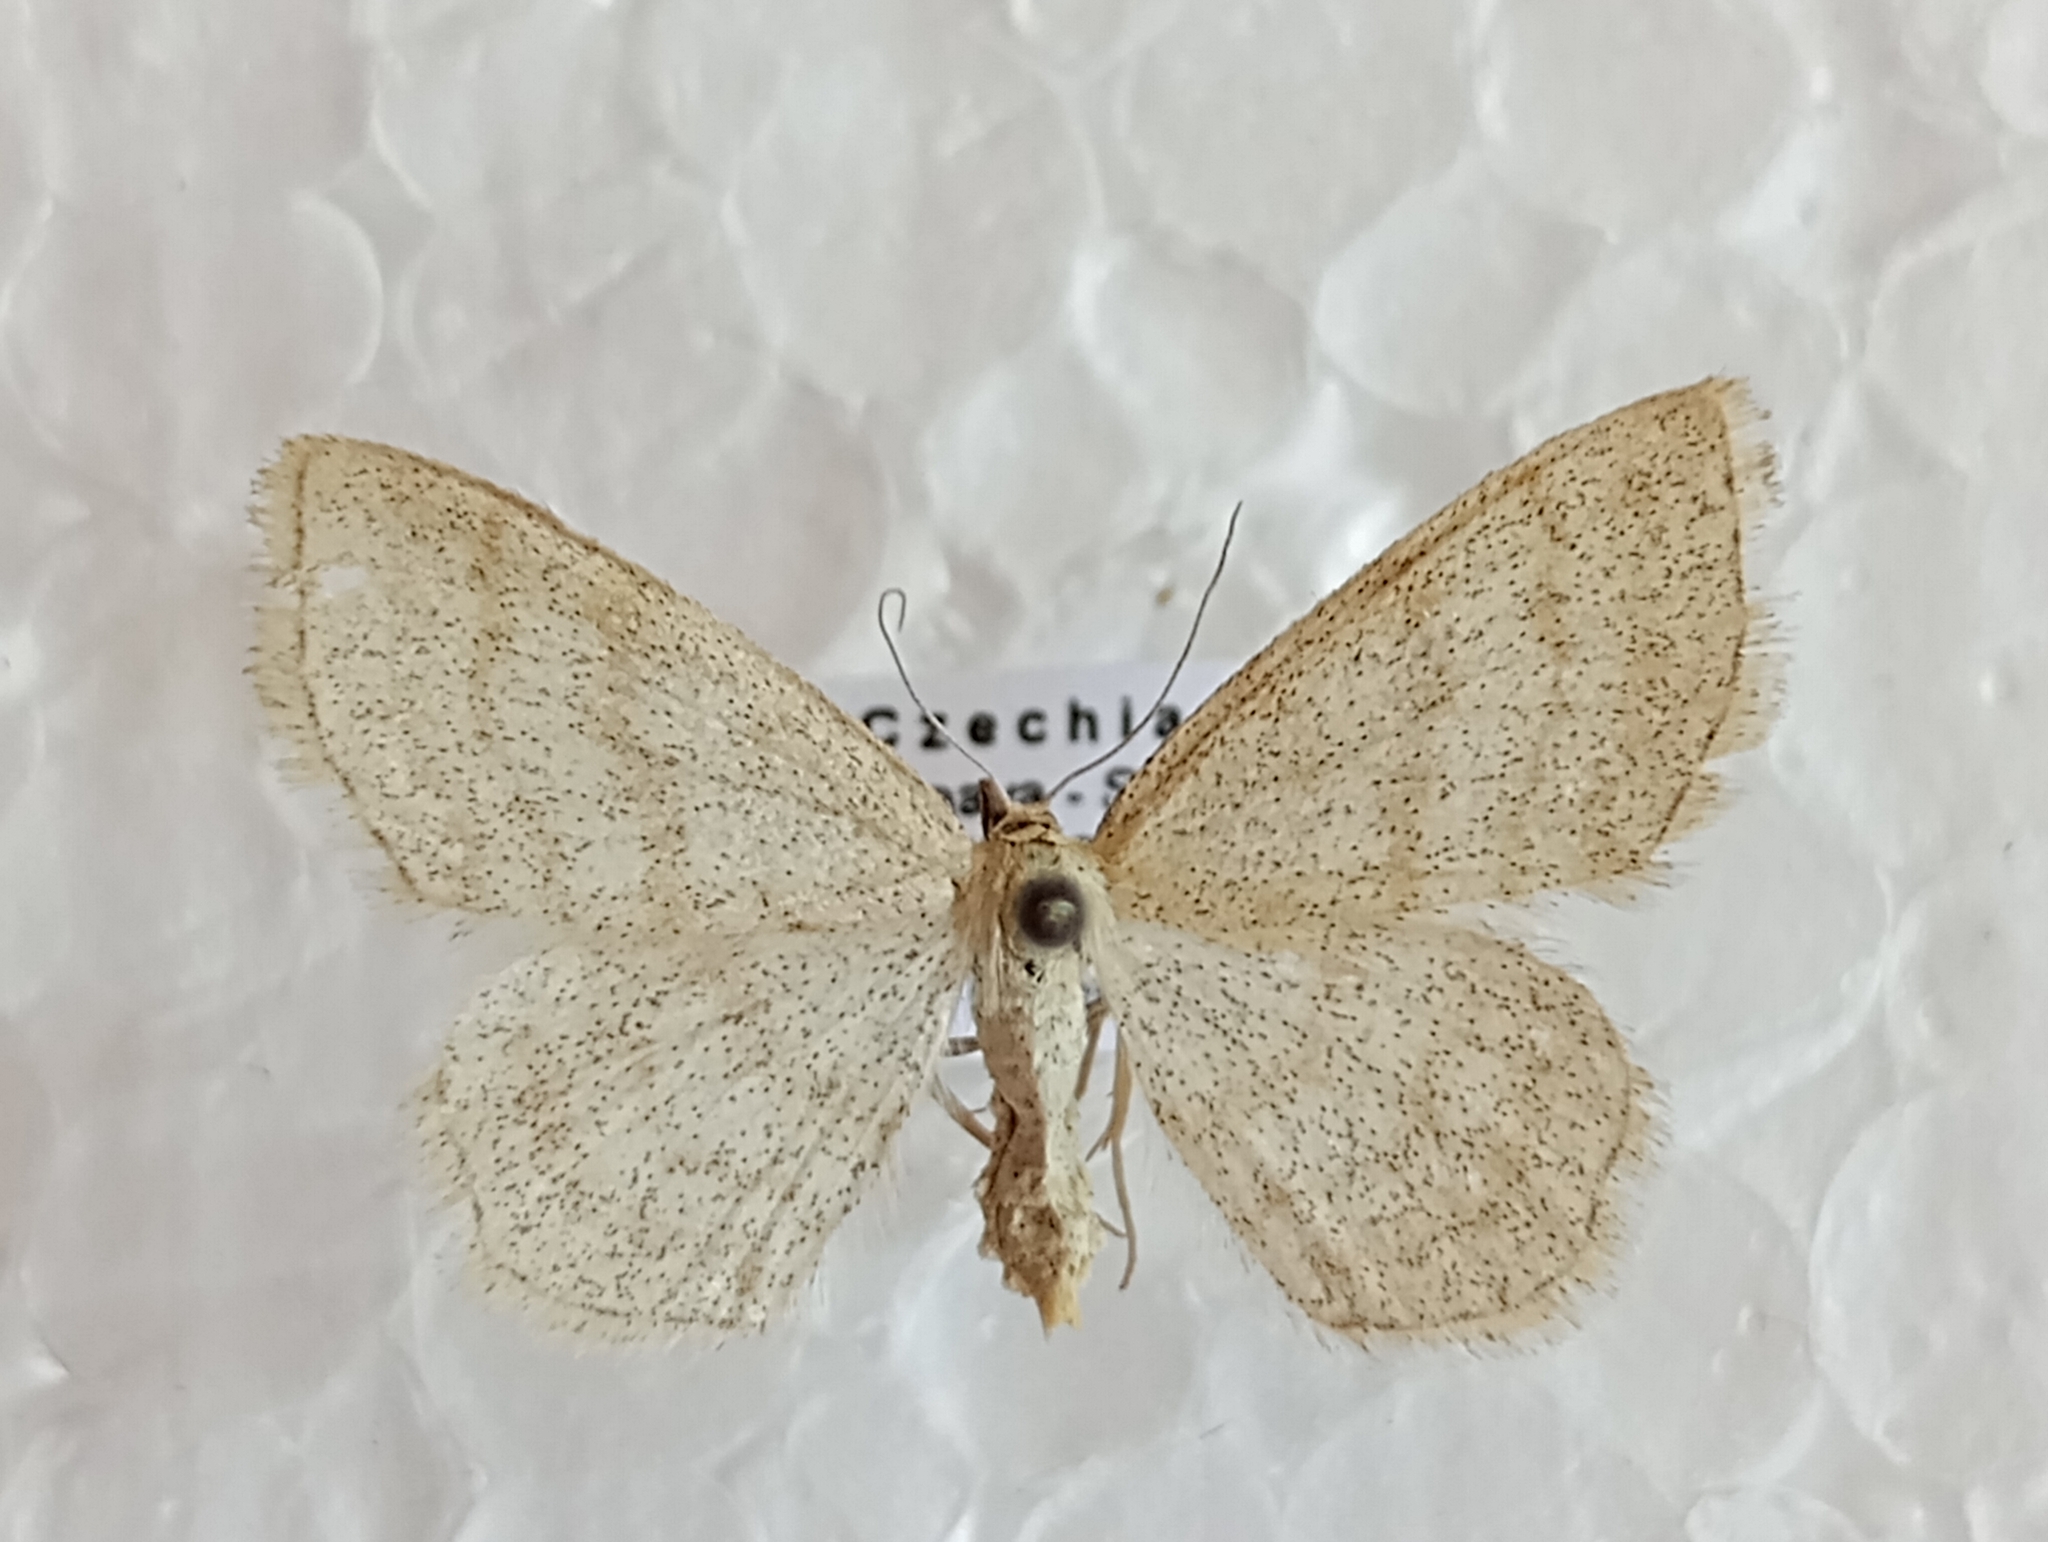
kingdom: Animalia
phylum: Arthropoda
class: Insecta
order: Lepidoptera
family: Geometridae
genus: Scopula
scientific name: Scopula ternata
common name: Smoky wave
